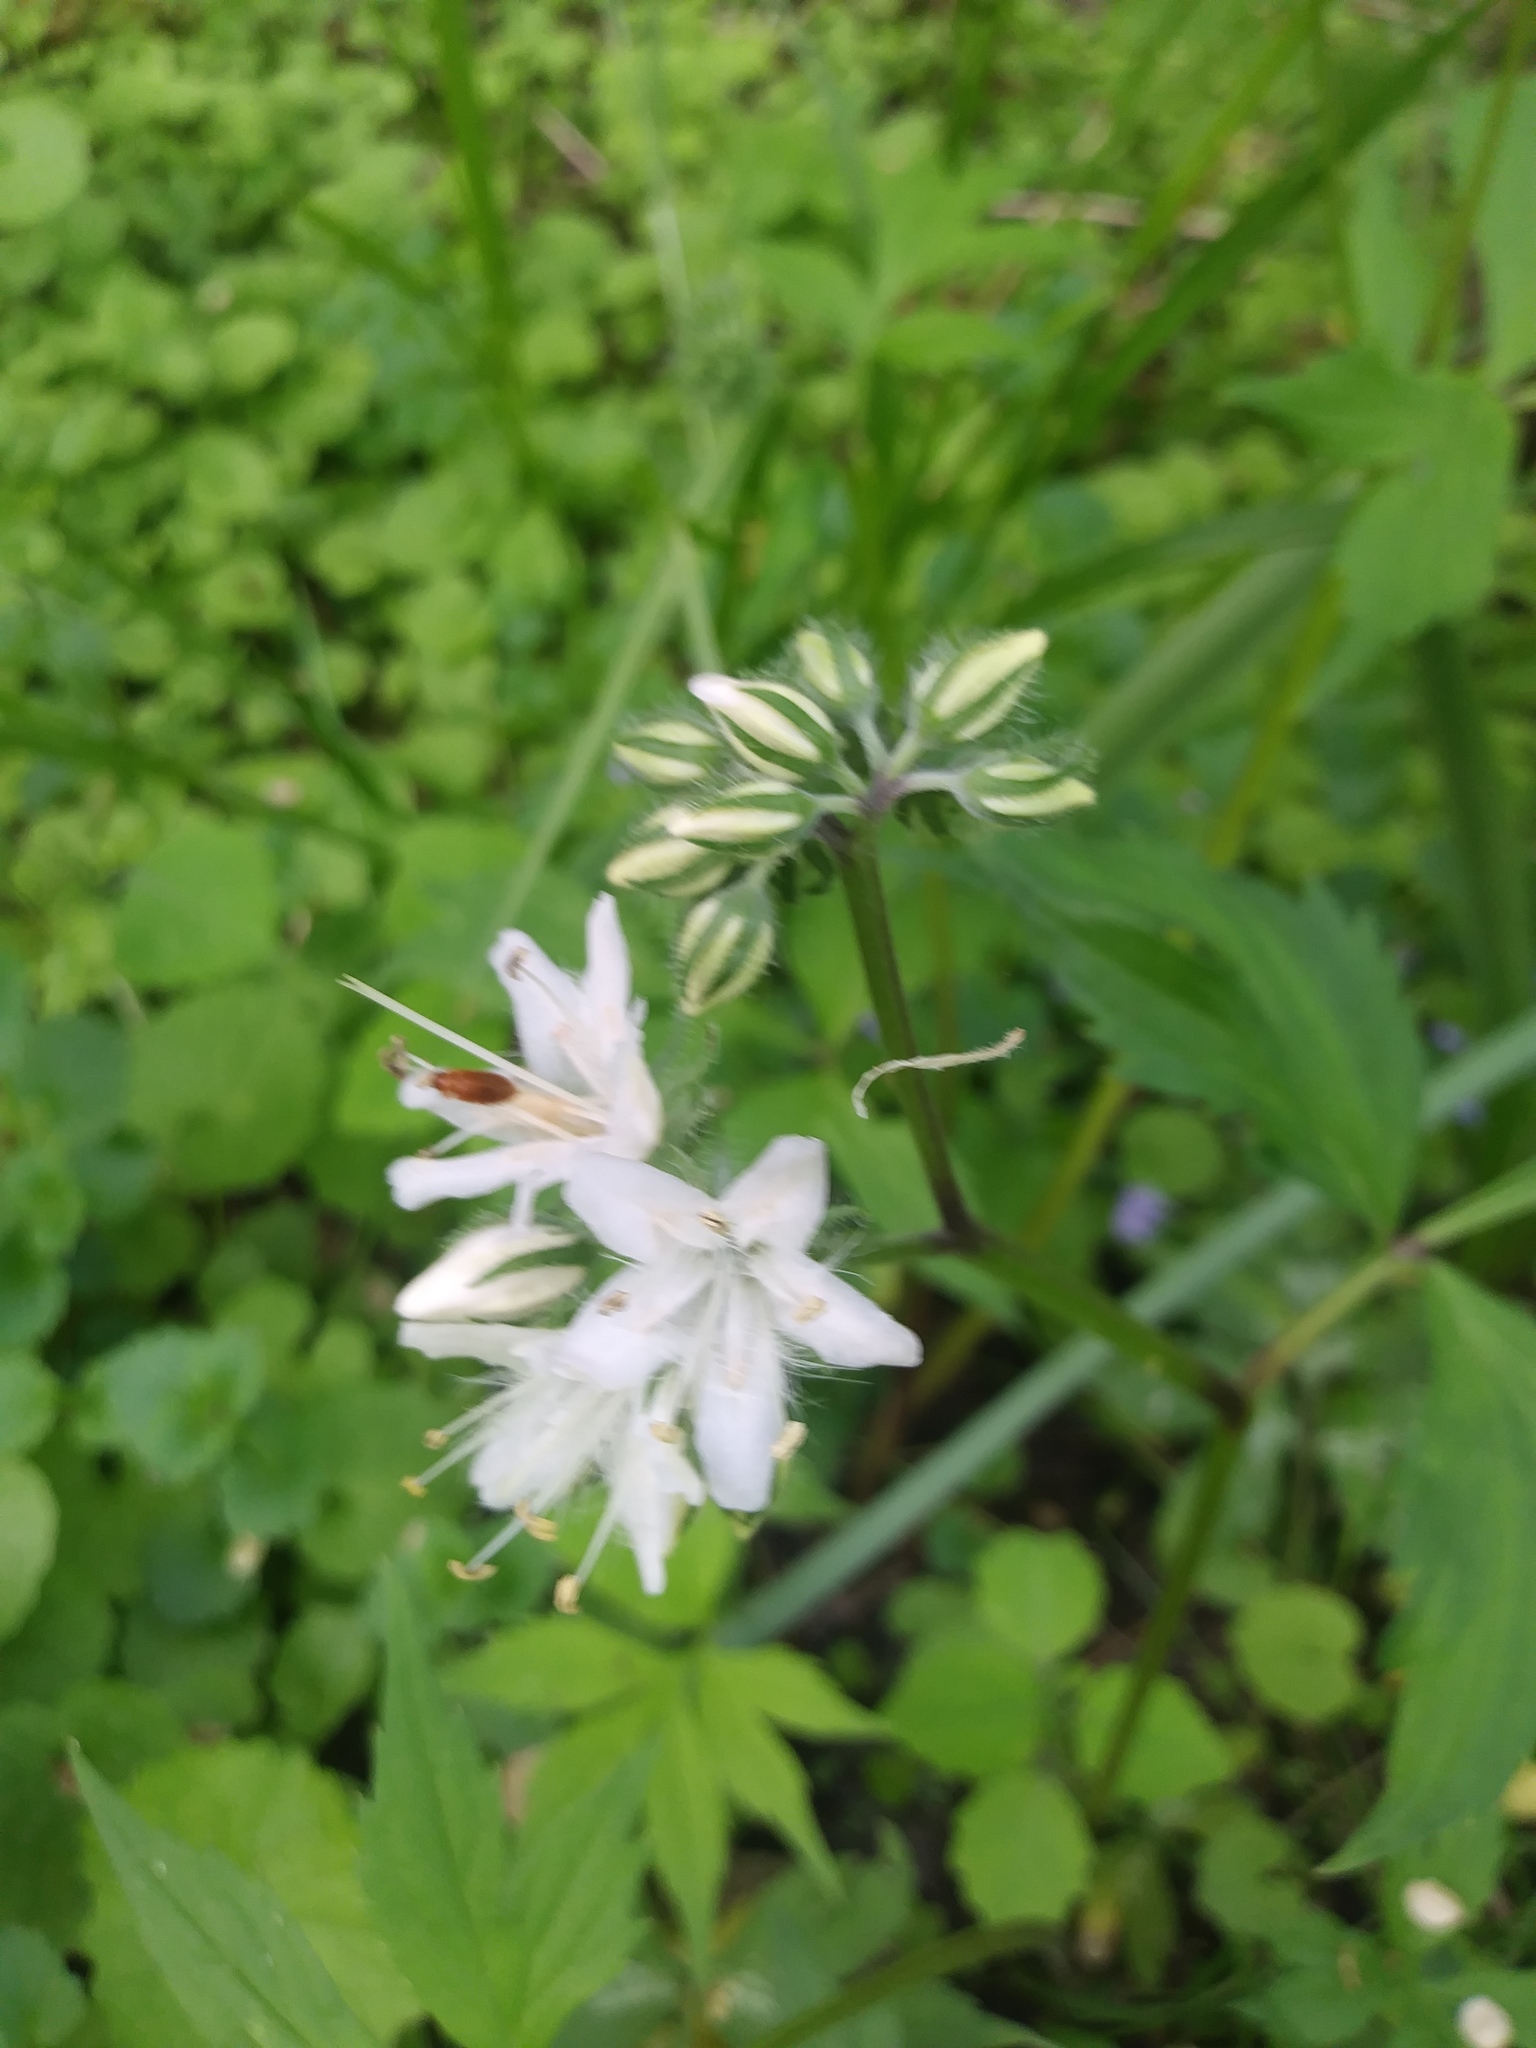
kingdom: Plantae
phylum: Tracheophyta
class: Magnoliopsida
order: Boraginales
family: Hydrophyllaceae
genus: Hydrophyllum
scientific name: Hydrophyllum virginianum
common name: Virginia waterleaf
